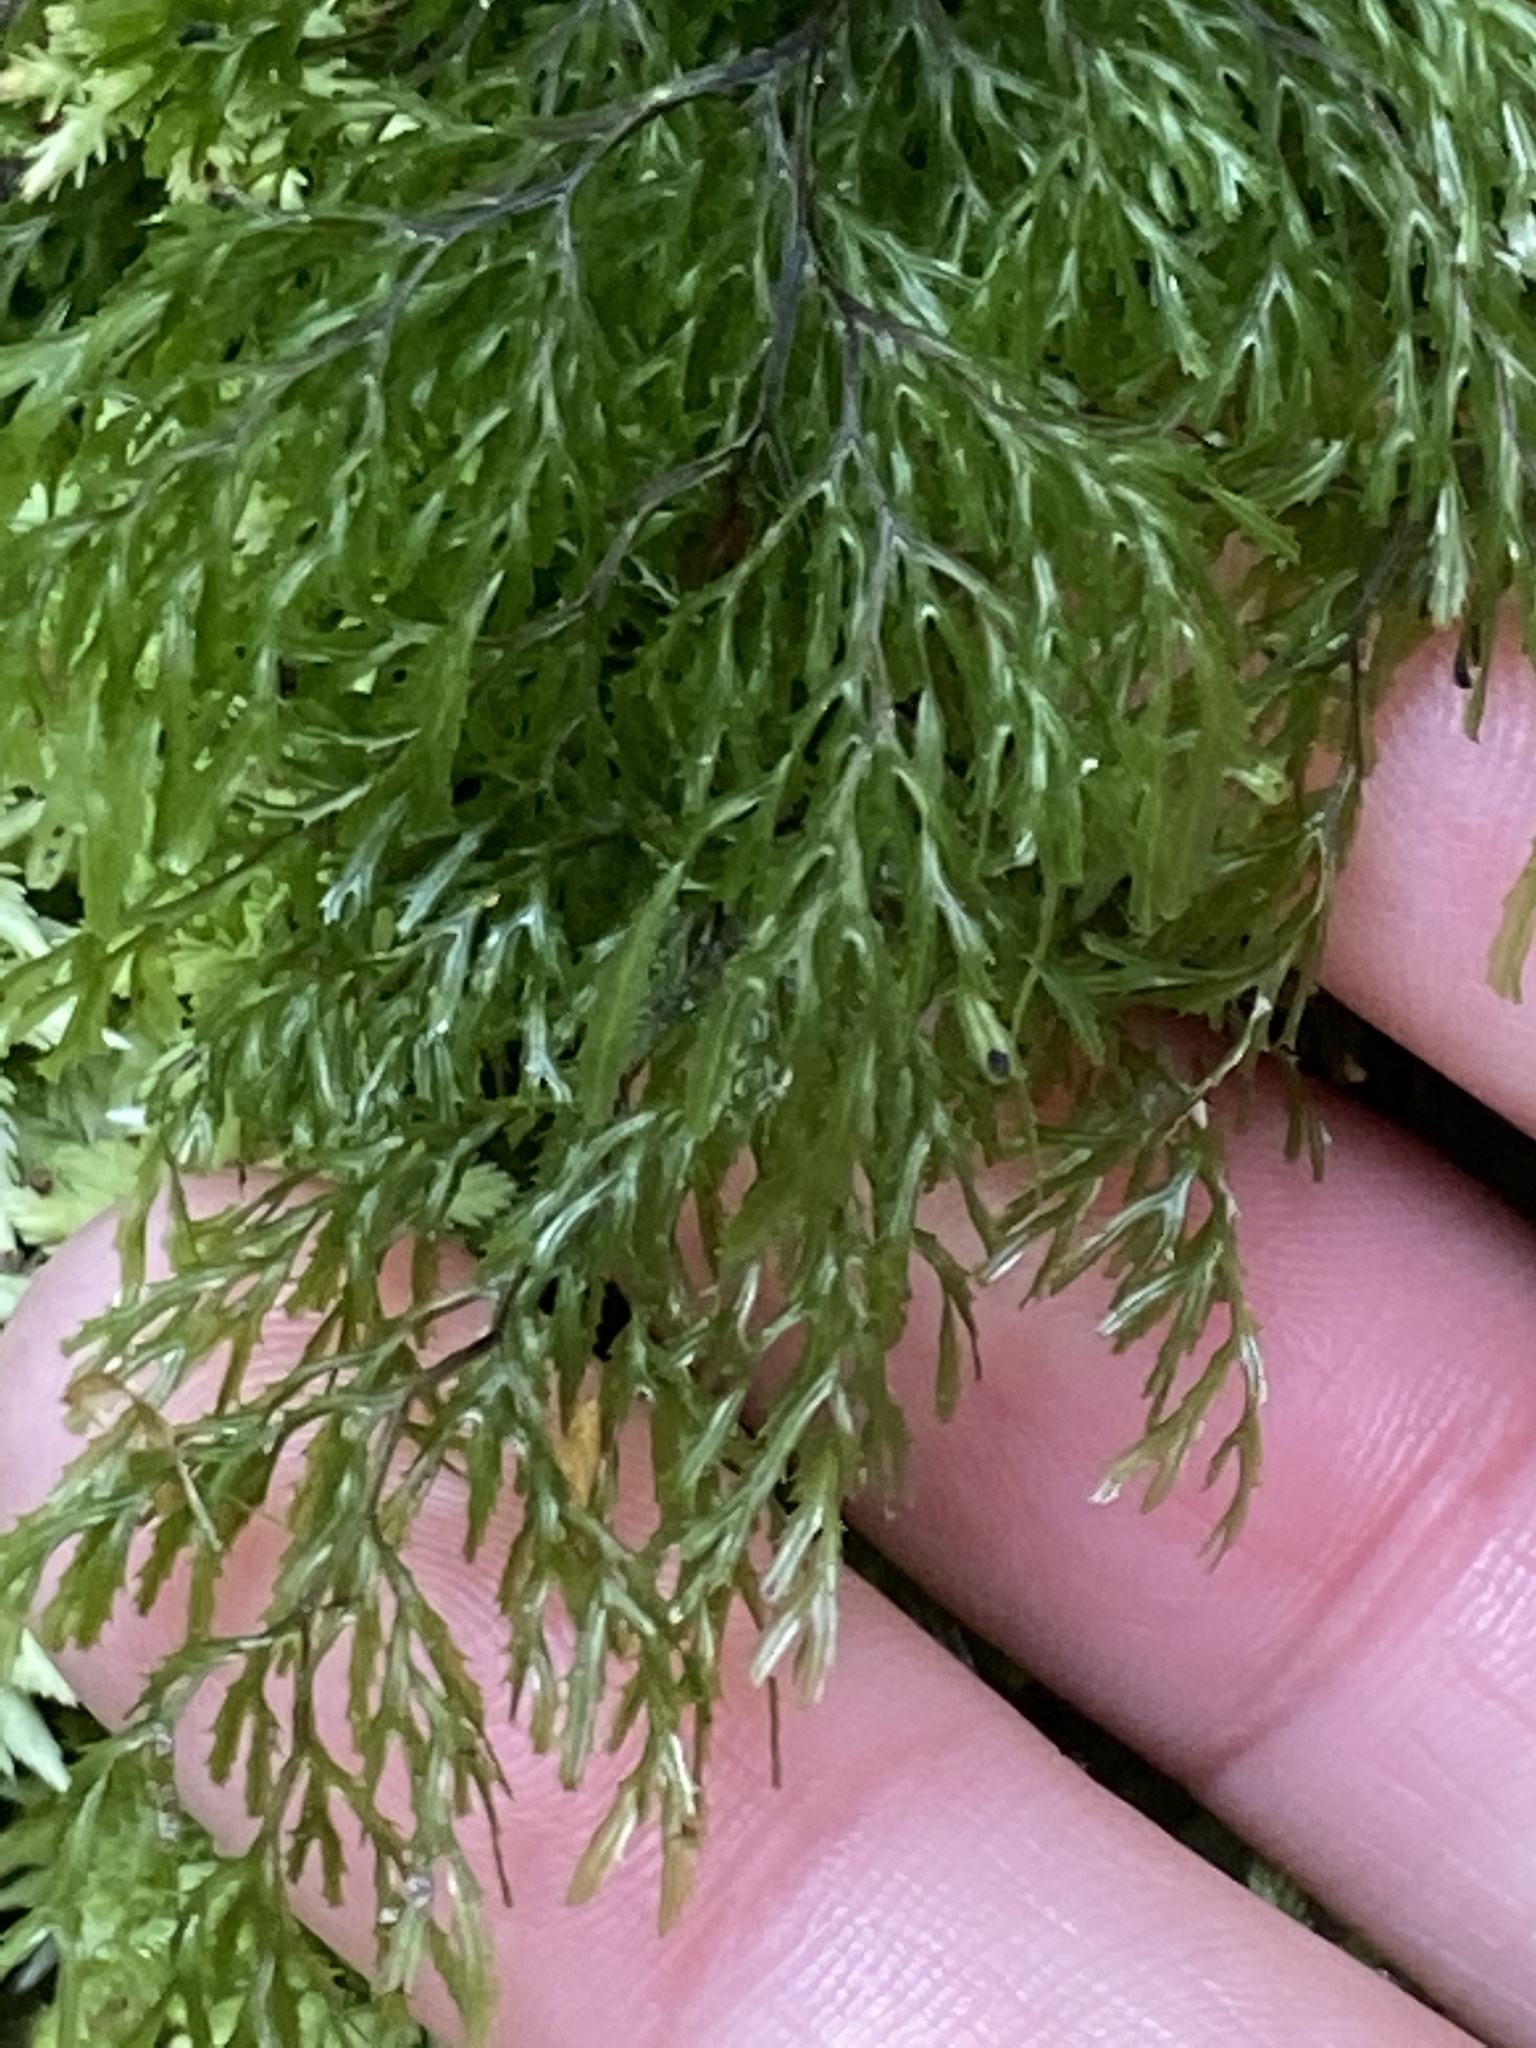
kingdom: Plantae
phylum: Tracheophyta
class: Polypodiopsida
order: Hymenophyllales
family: Hymenophyllaceae
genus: Hymenophyllum
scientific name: Hymenophyllum multifidum
